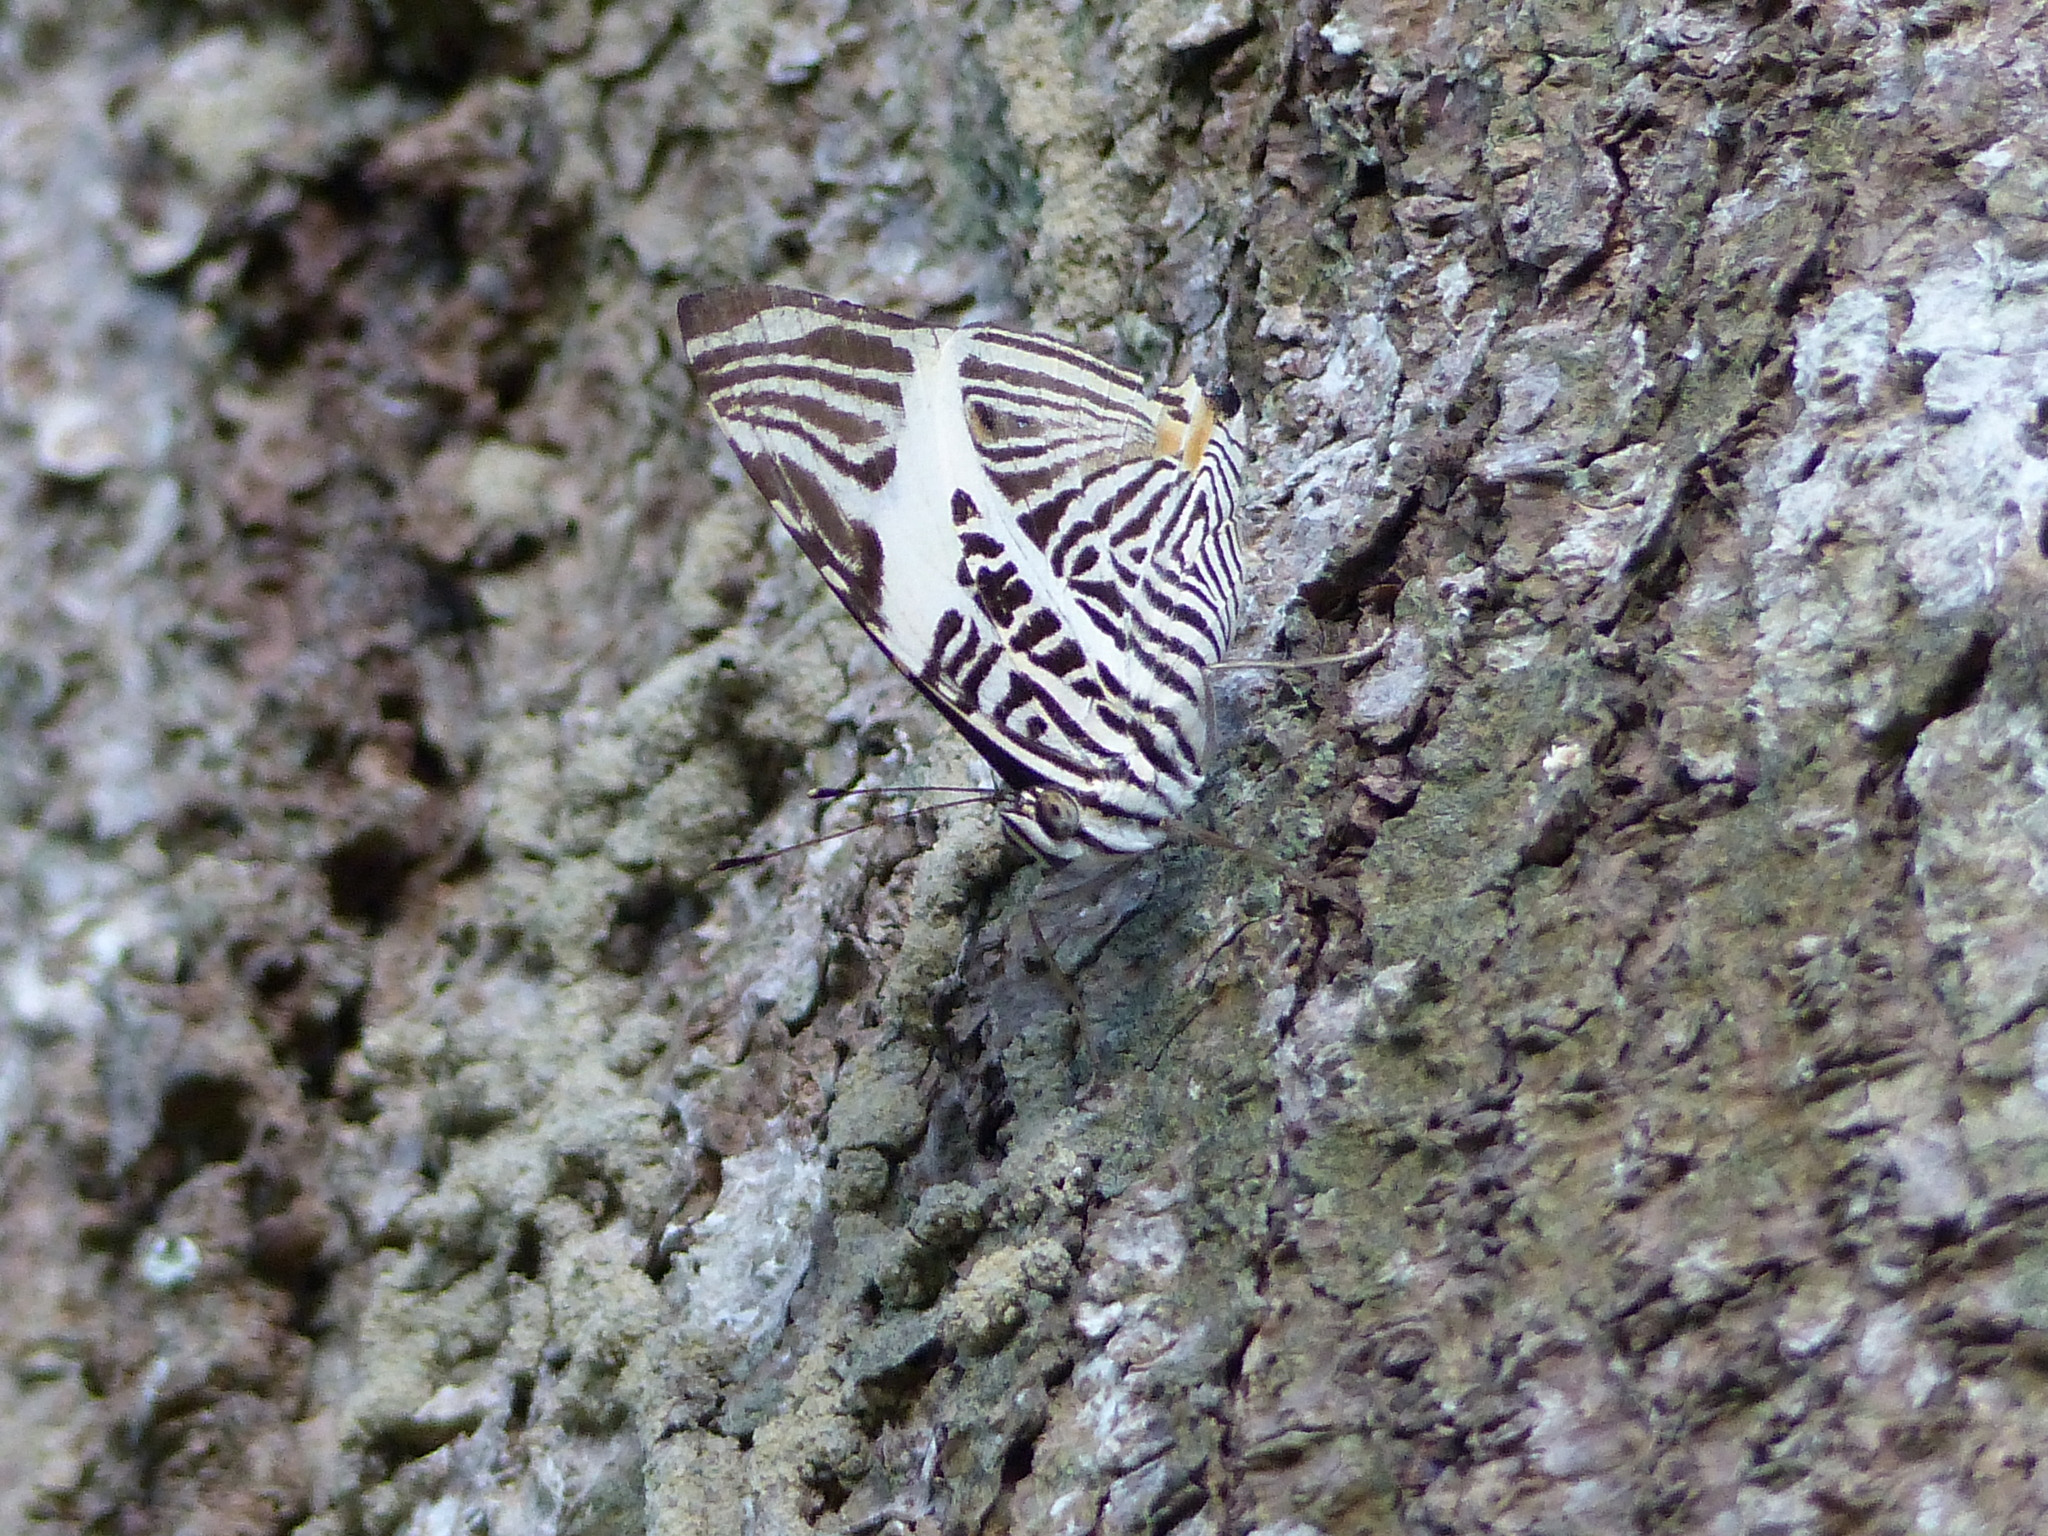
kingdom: Animalia
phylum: Arthropoda
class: Insecta
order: Lepidoptera
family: Nymphalidae
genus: Colobura
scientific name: Colobura dirce
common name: Dirce beauty
